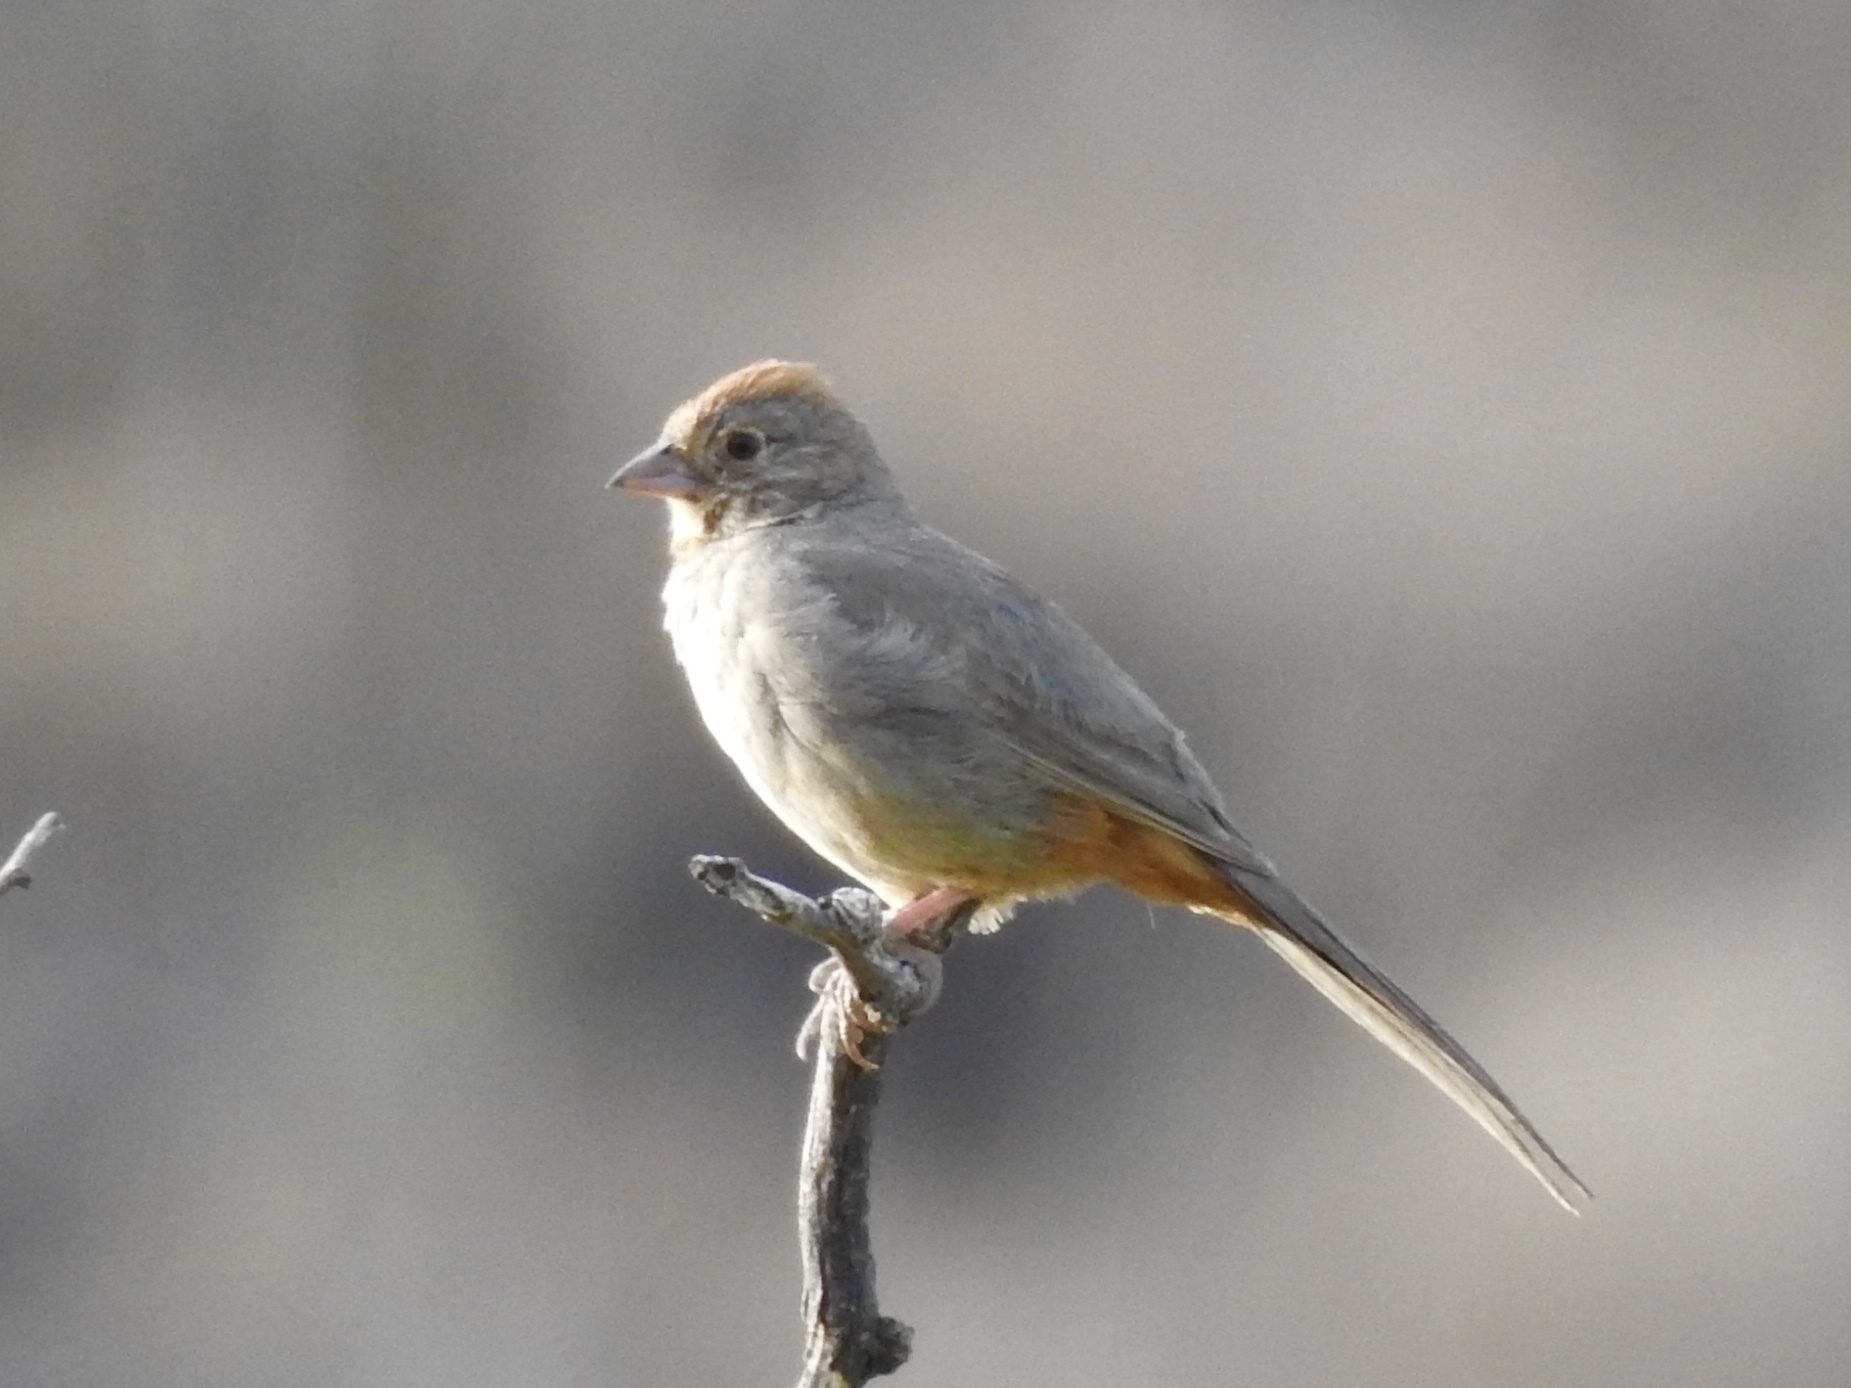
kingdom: Animalia
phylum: Chordata
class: Aves
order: Passeriformes
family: Passerellidae
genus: Melozone
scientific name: Melozone fusca
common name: Canyon towhee
